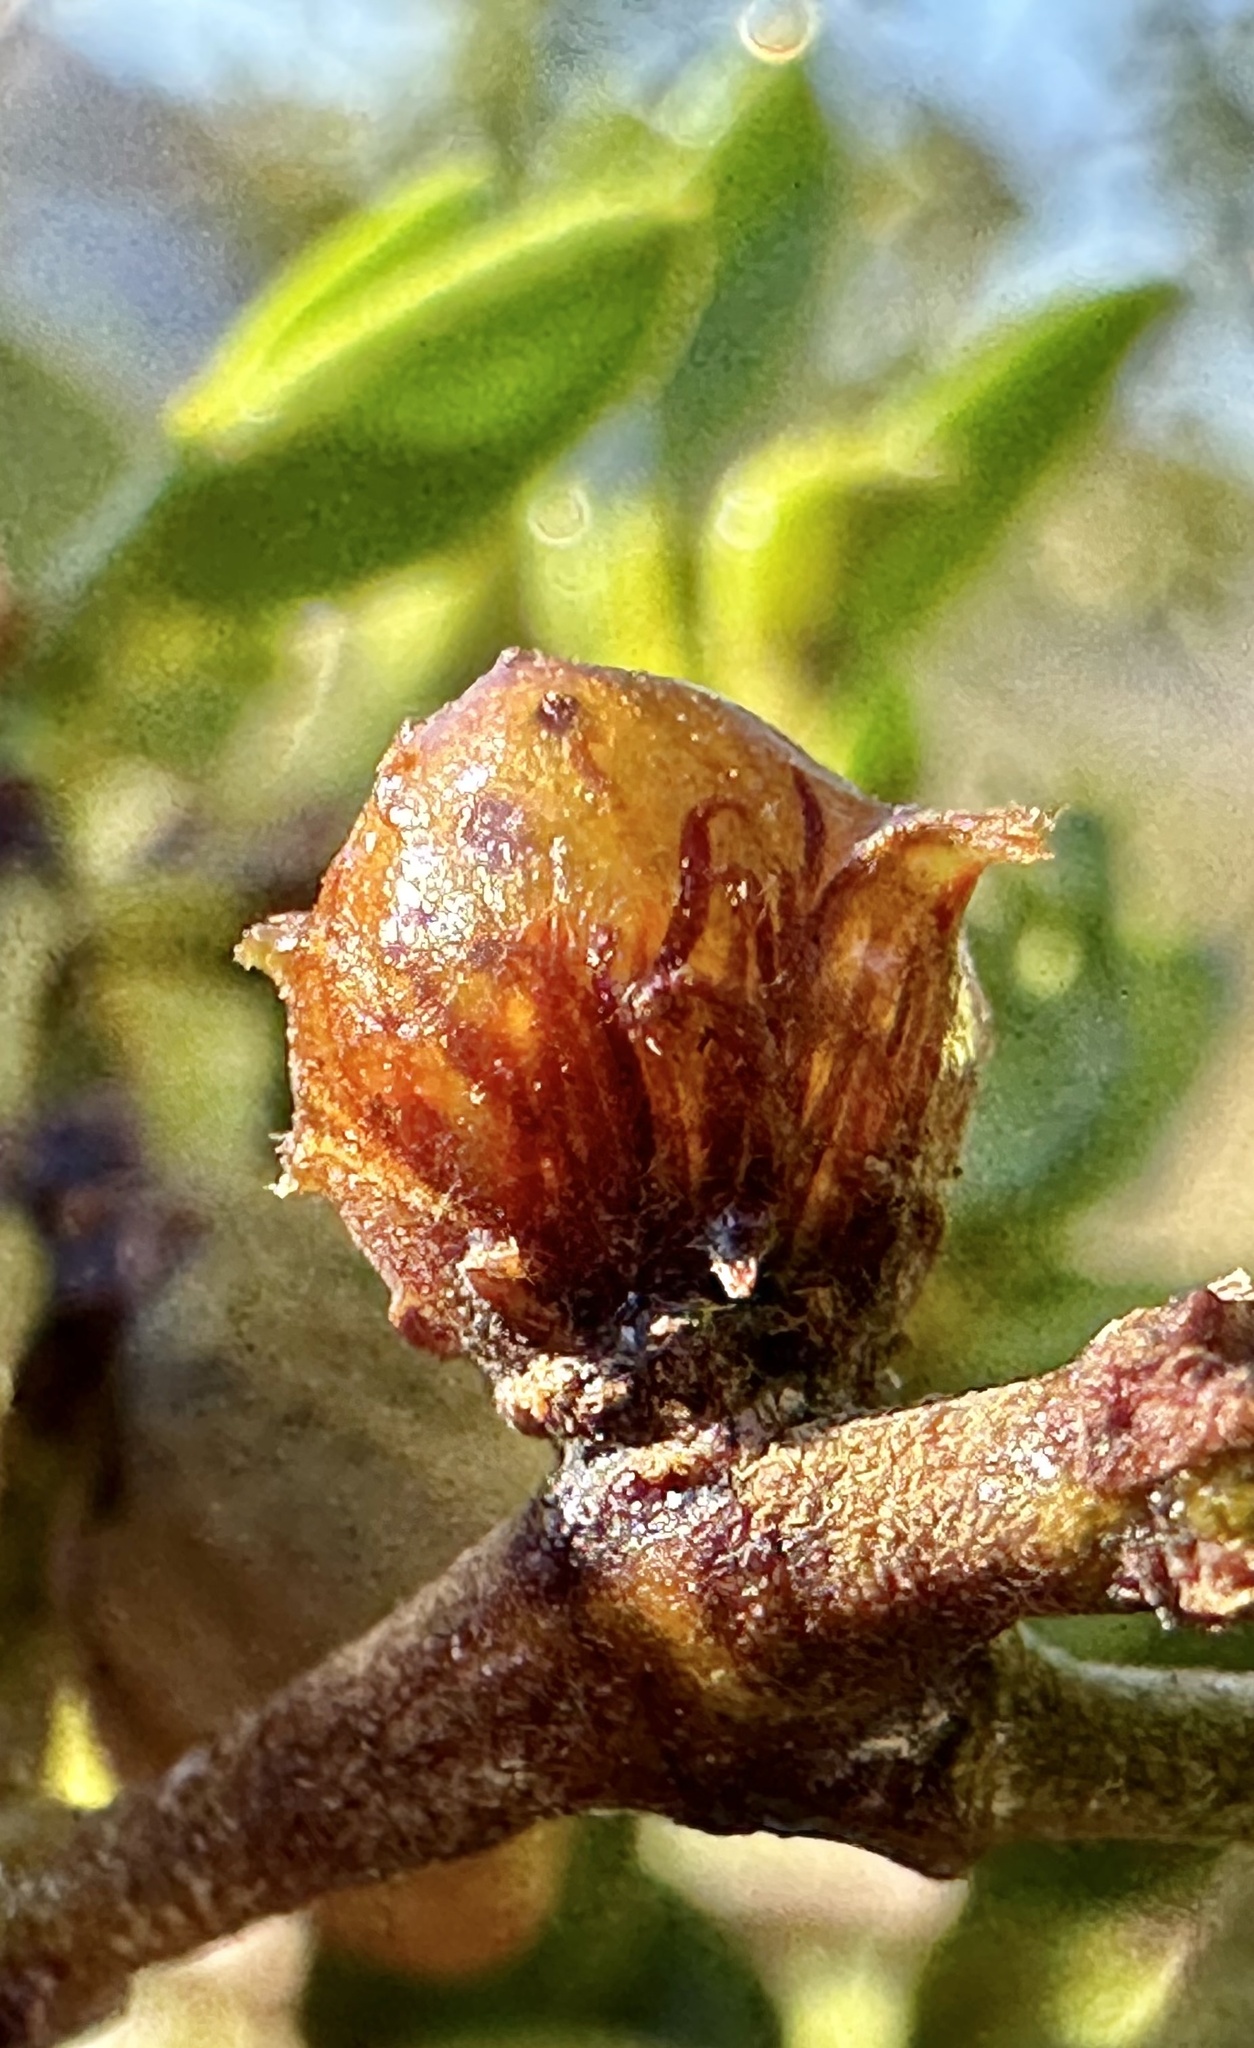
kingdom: Animalia
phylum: Arthropoda
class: Insecta
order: Diptera
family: Cecidomyiidae
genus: Asphondylia
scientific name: Asphondylia resinosa
